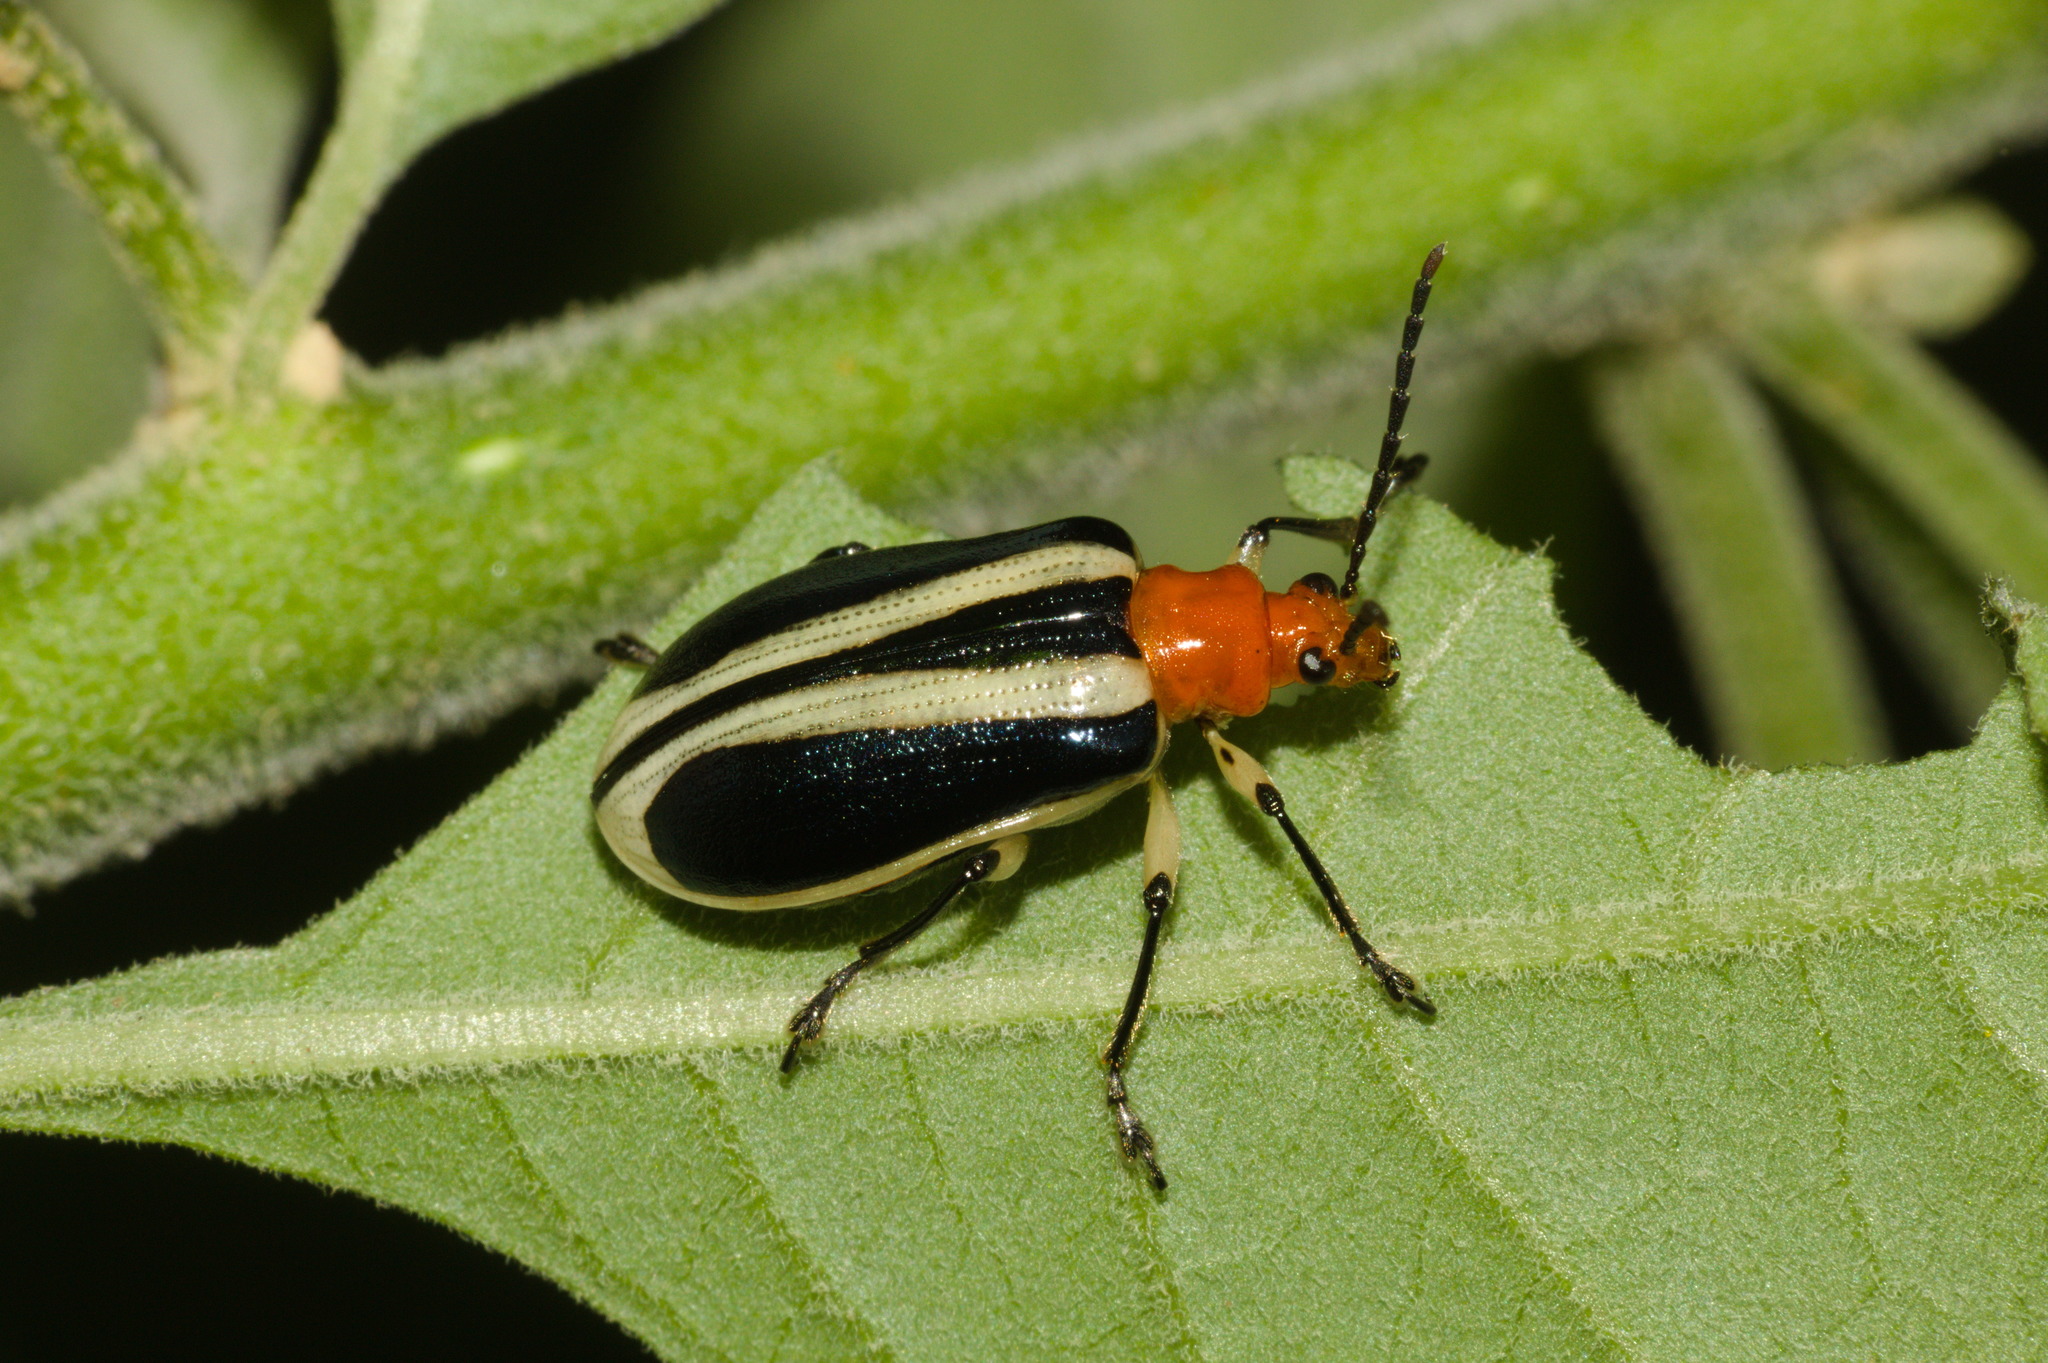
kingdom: Animalia
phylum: Arthropoda
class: Insecta
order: Coleoptera
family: Chrysomelidae
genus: Stolas
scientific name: Stolas chalybaea
